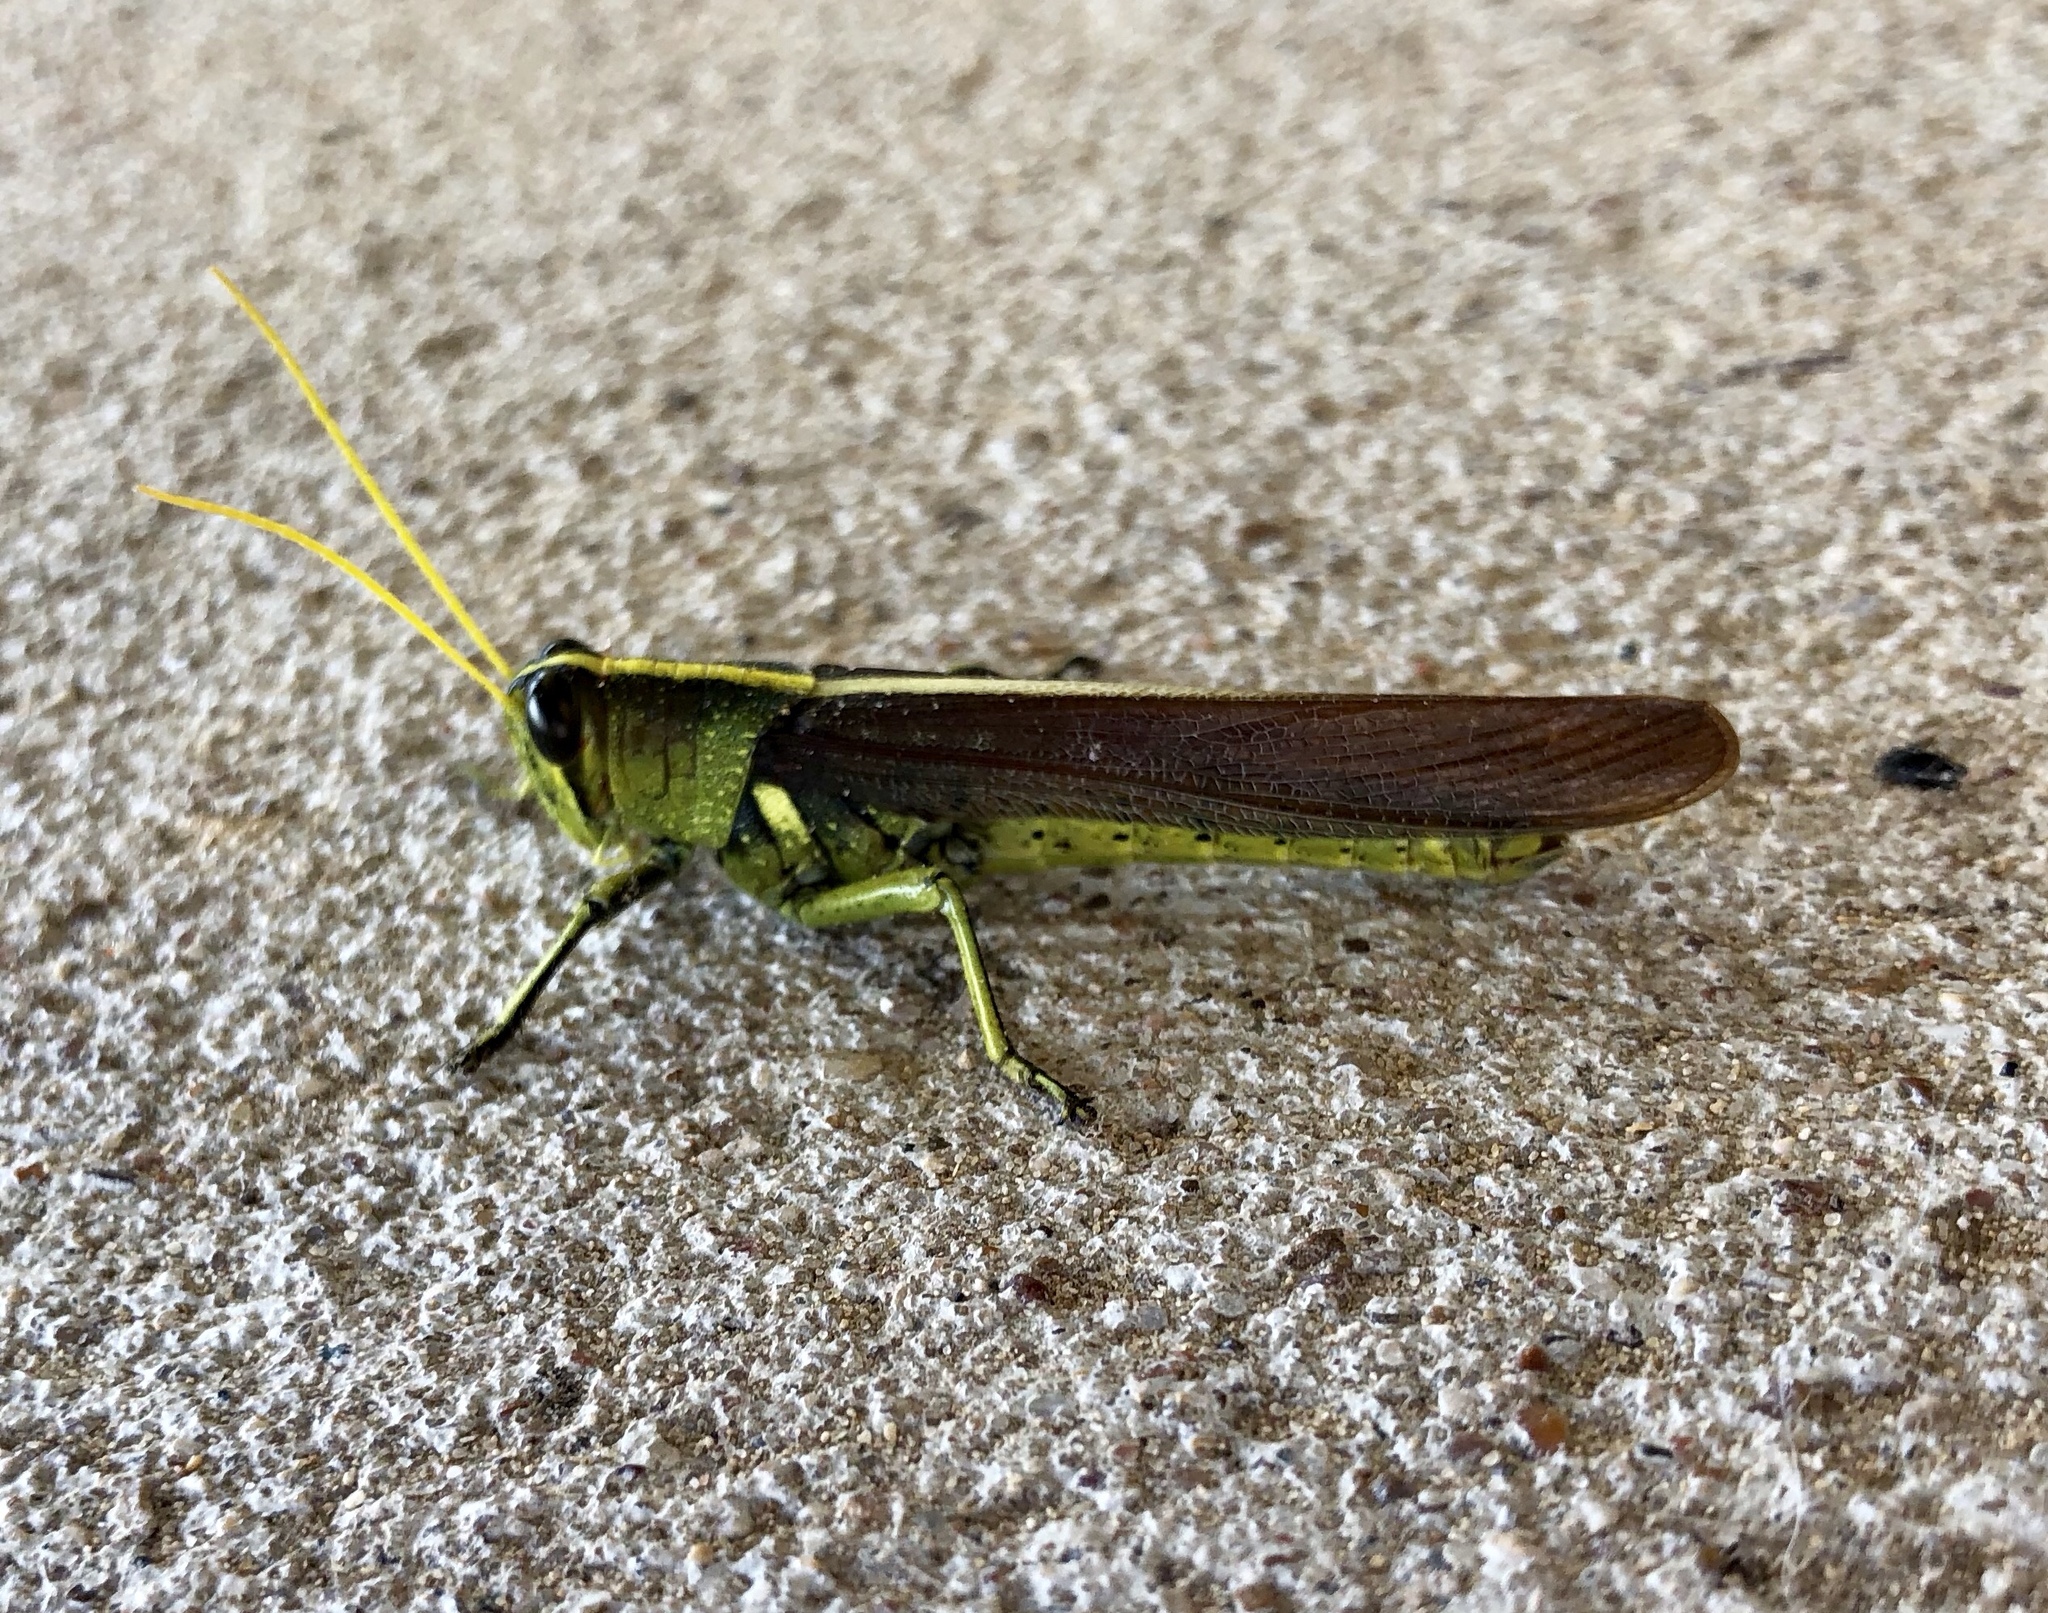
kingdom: Animalia
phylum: Arthropoda
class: Insecta
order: Orthoptera
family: Acrididae
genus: Schistocerca
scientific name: Schistocerca obscura
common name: Obscure bird grasshopper
